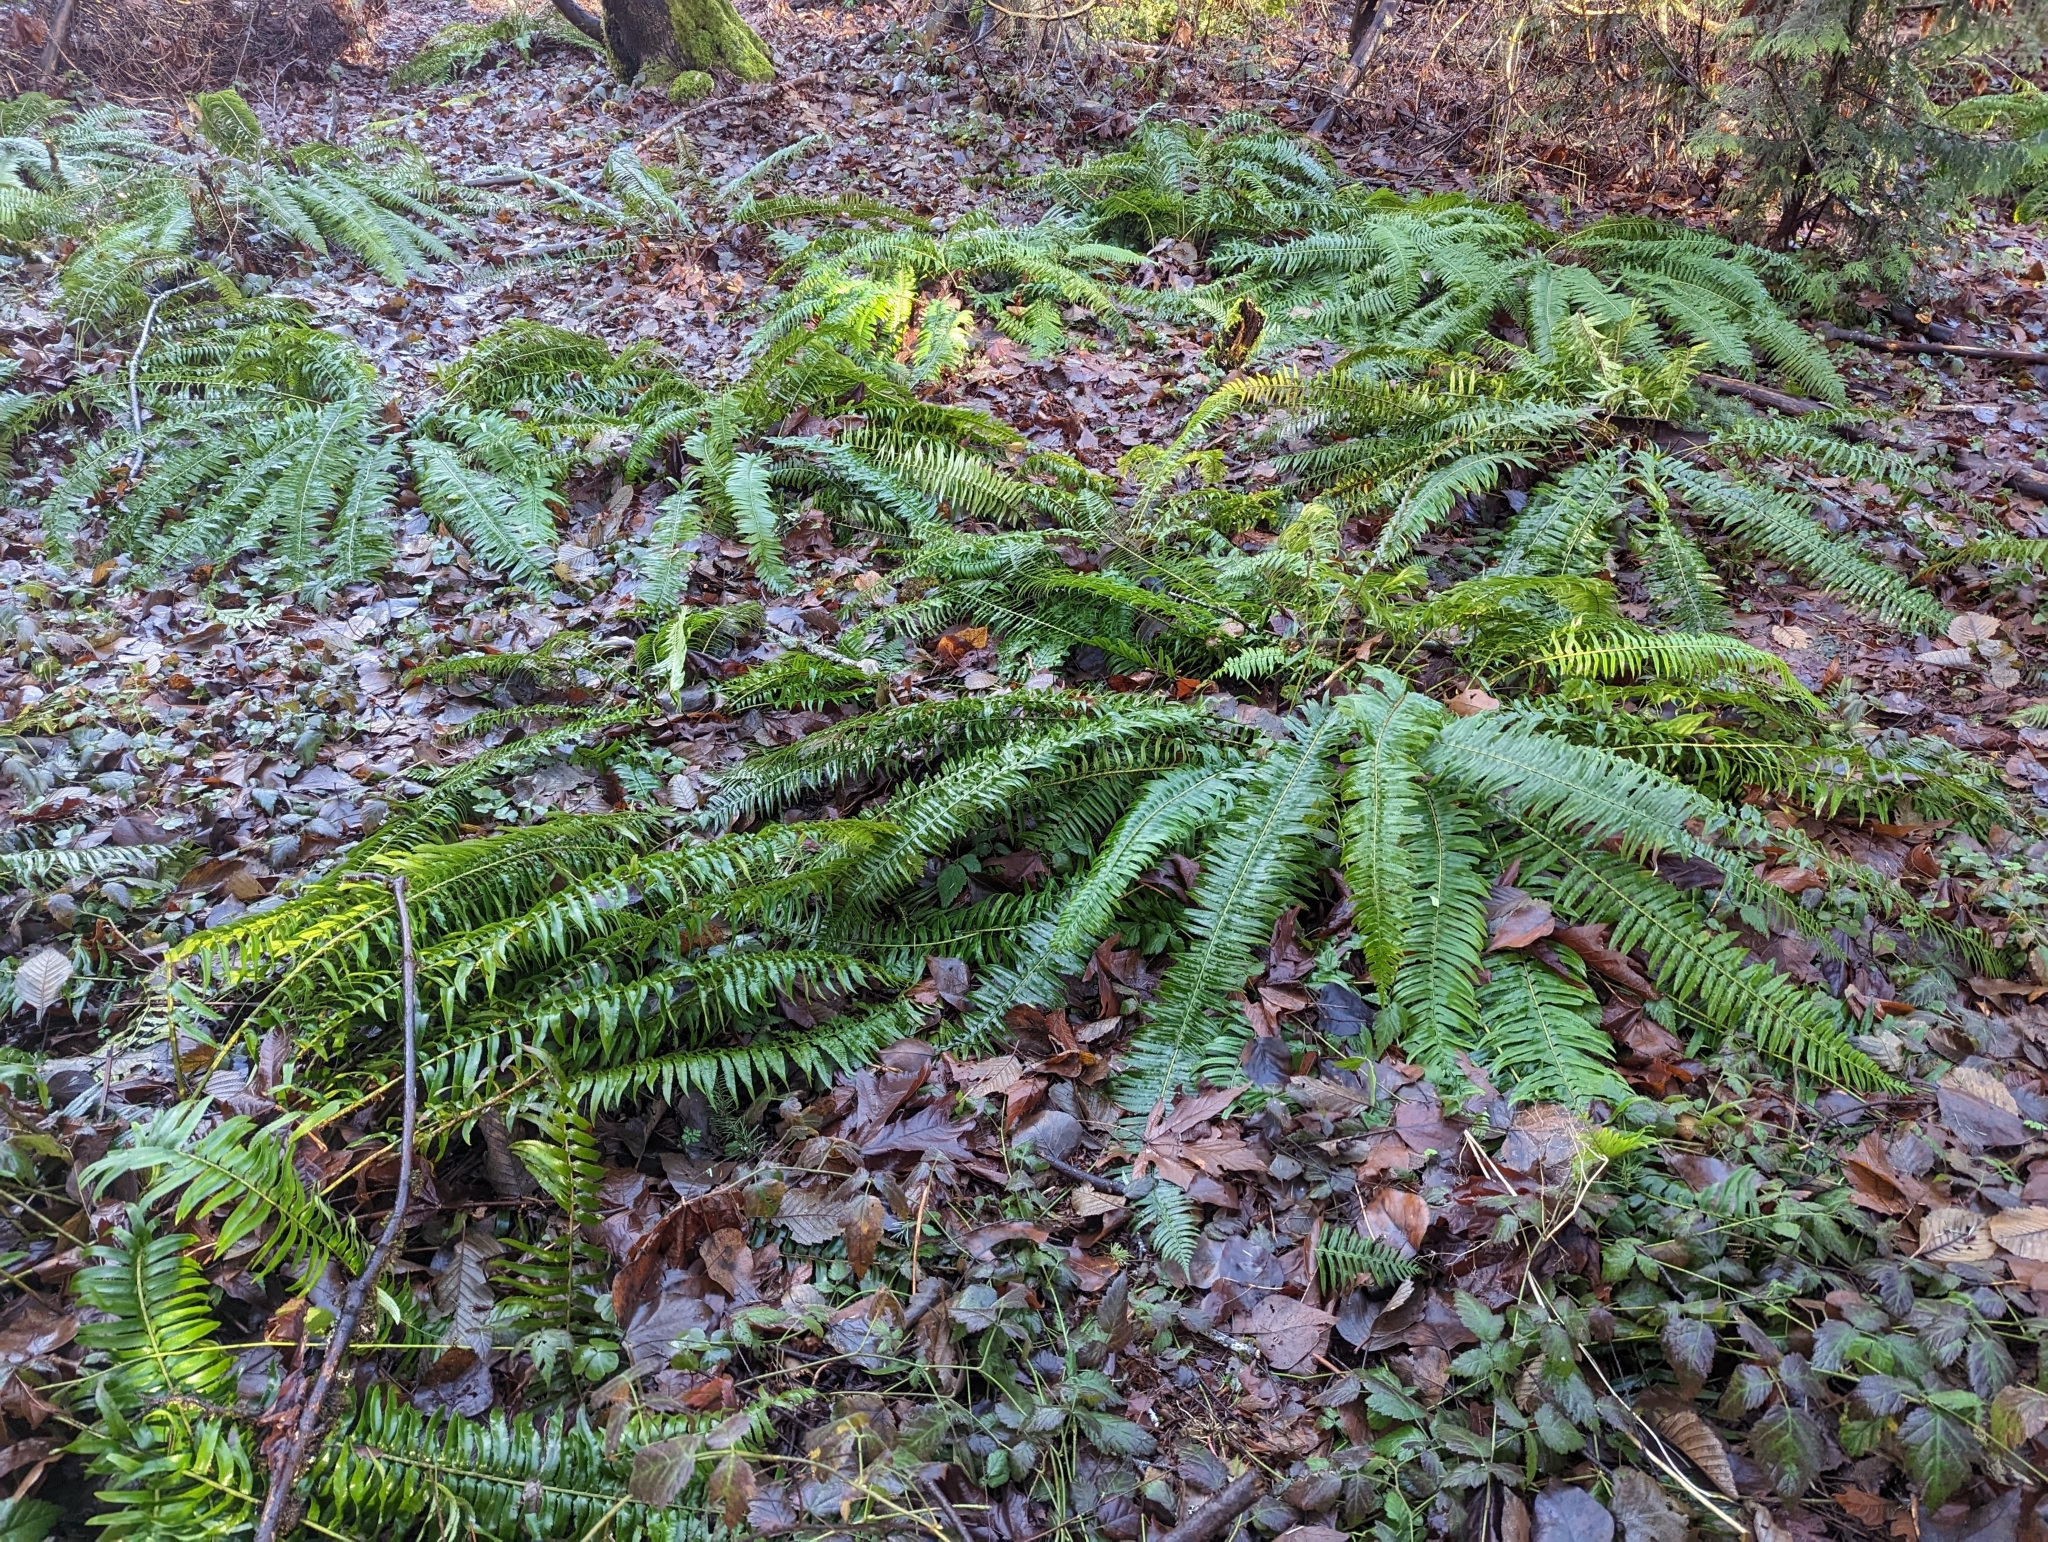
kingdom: Plantae
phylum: Tracheophyta
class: Polypodiopsida
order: Polypodiales
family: Dryopteridaceae
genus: Polystichum
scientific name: Polystichum munitum
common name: Western sword-fern
